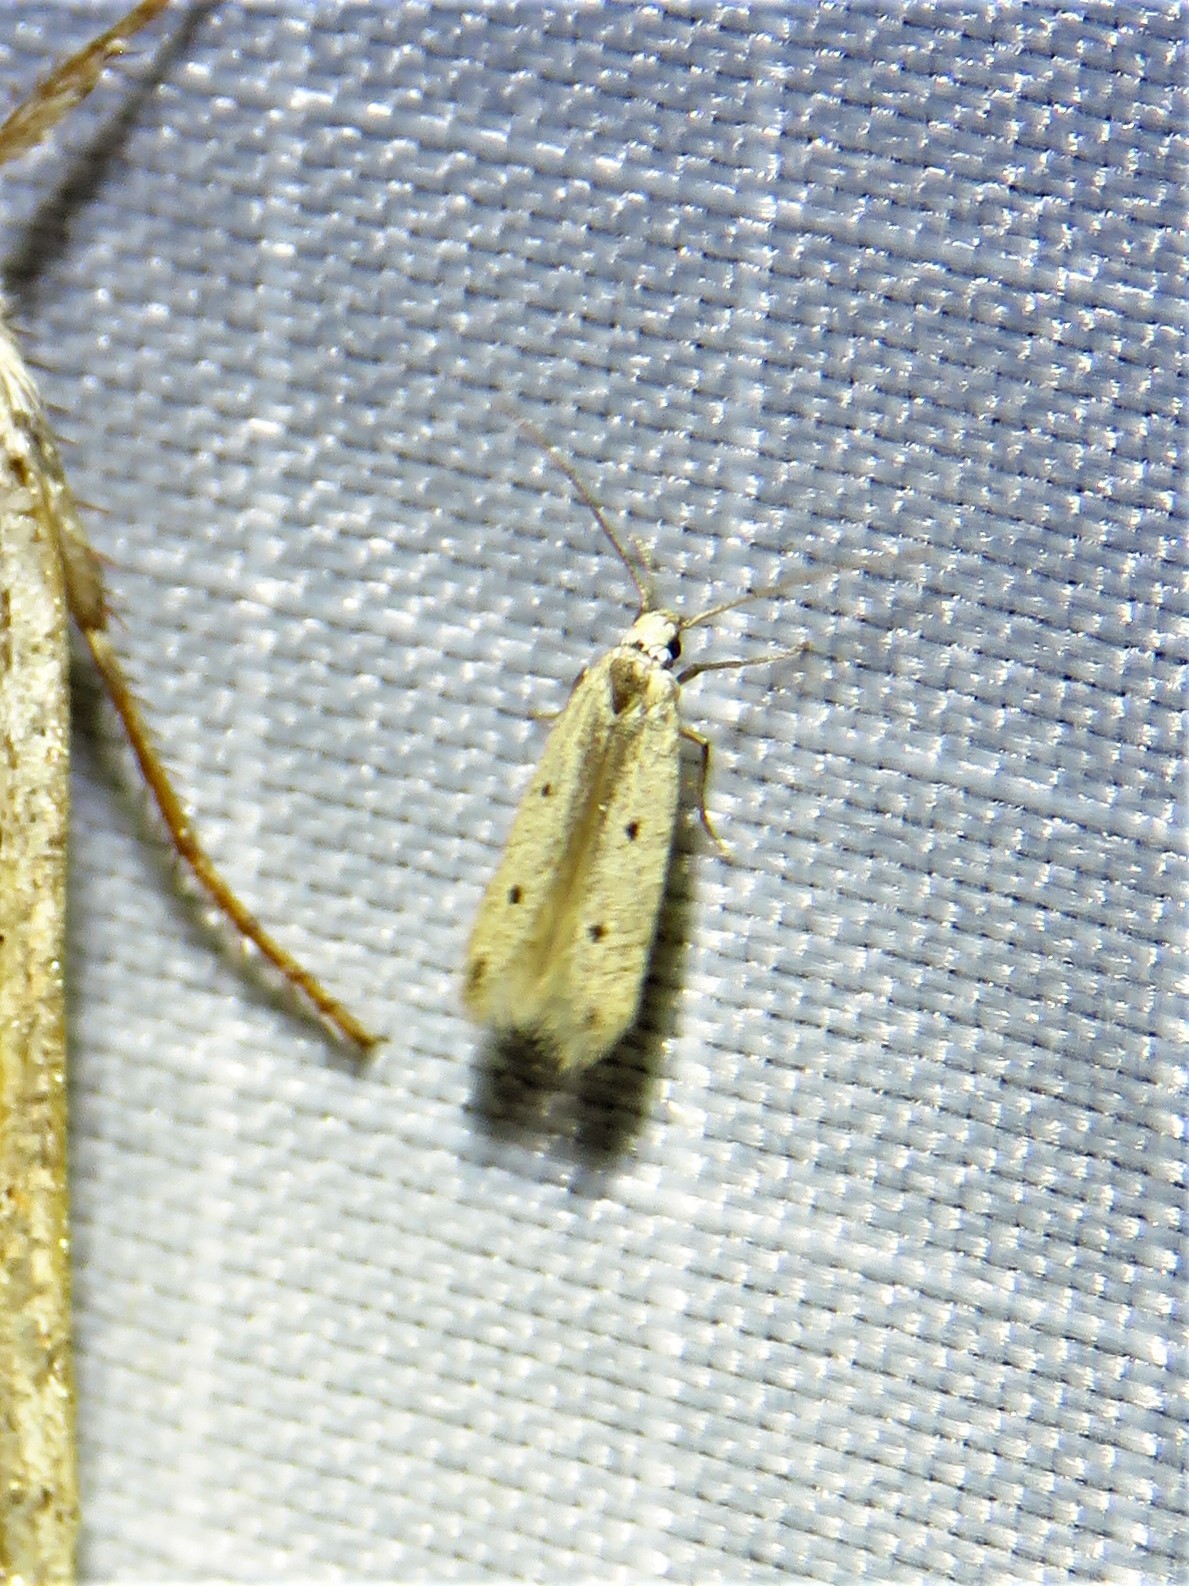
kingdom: Animalia
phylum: Arthropoda
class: Insecta
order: Lepidoptera
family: Gelechiidae
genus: Numata
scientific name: Numata bipunctella
